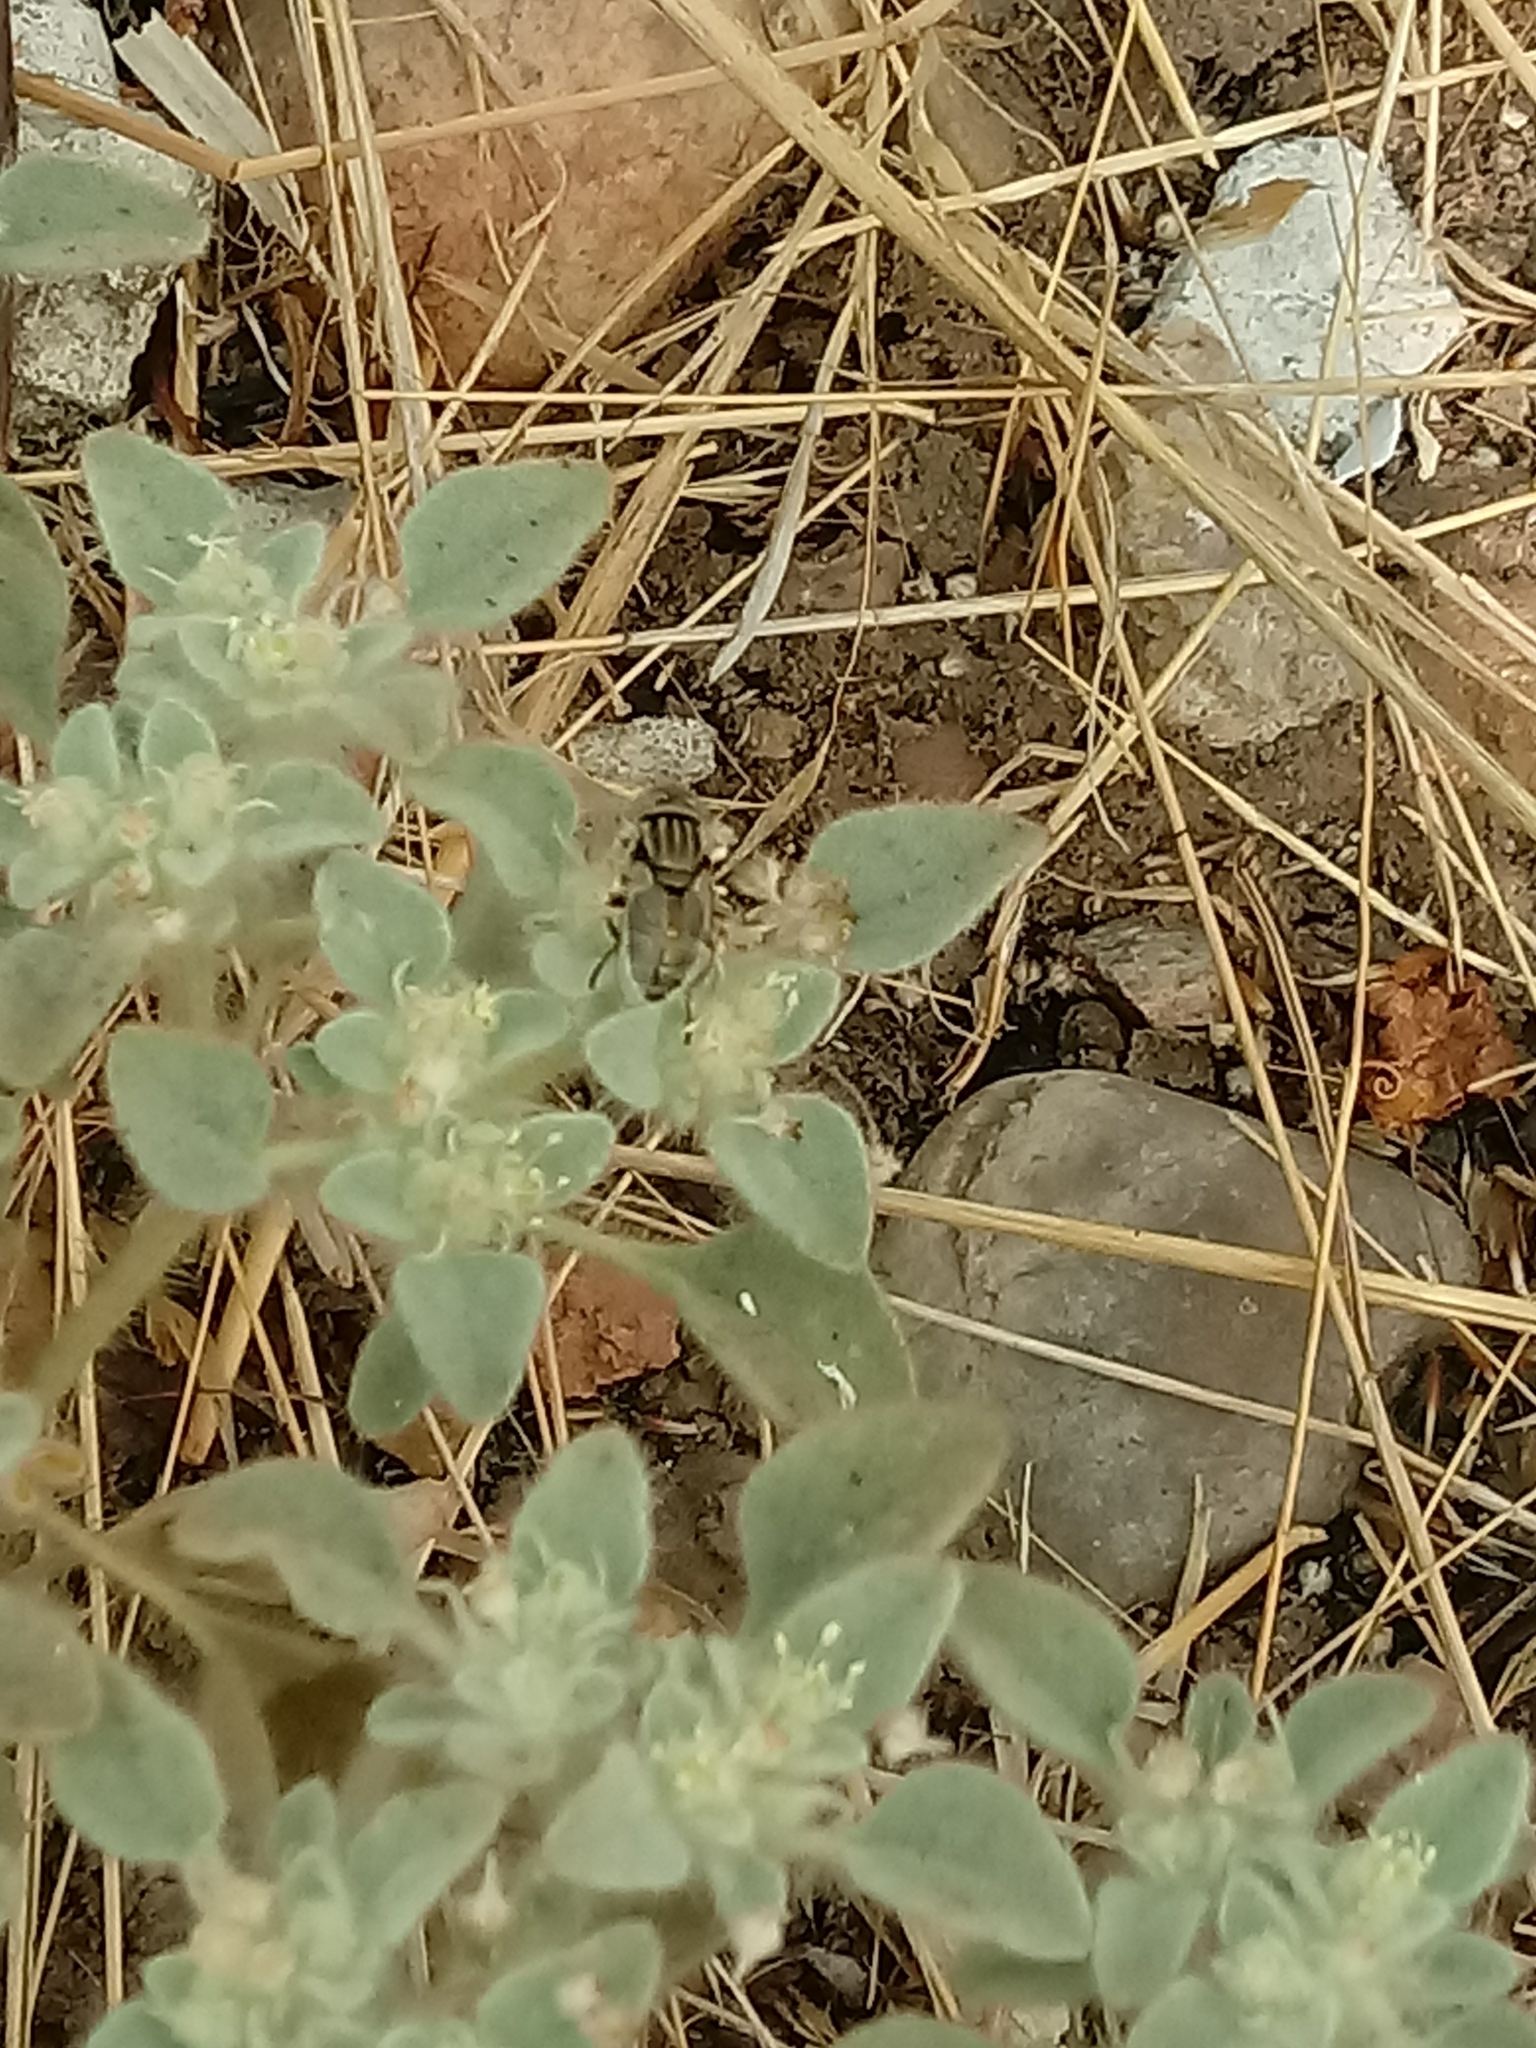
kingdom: Animalia
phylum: Arthropoda
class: Insecta
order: Diptera
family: Syrphidae
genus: Eristalinus
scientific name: Eristalinus aeneus
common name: Syrphid fly
